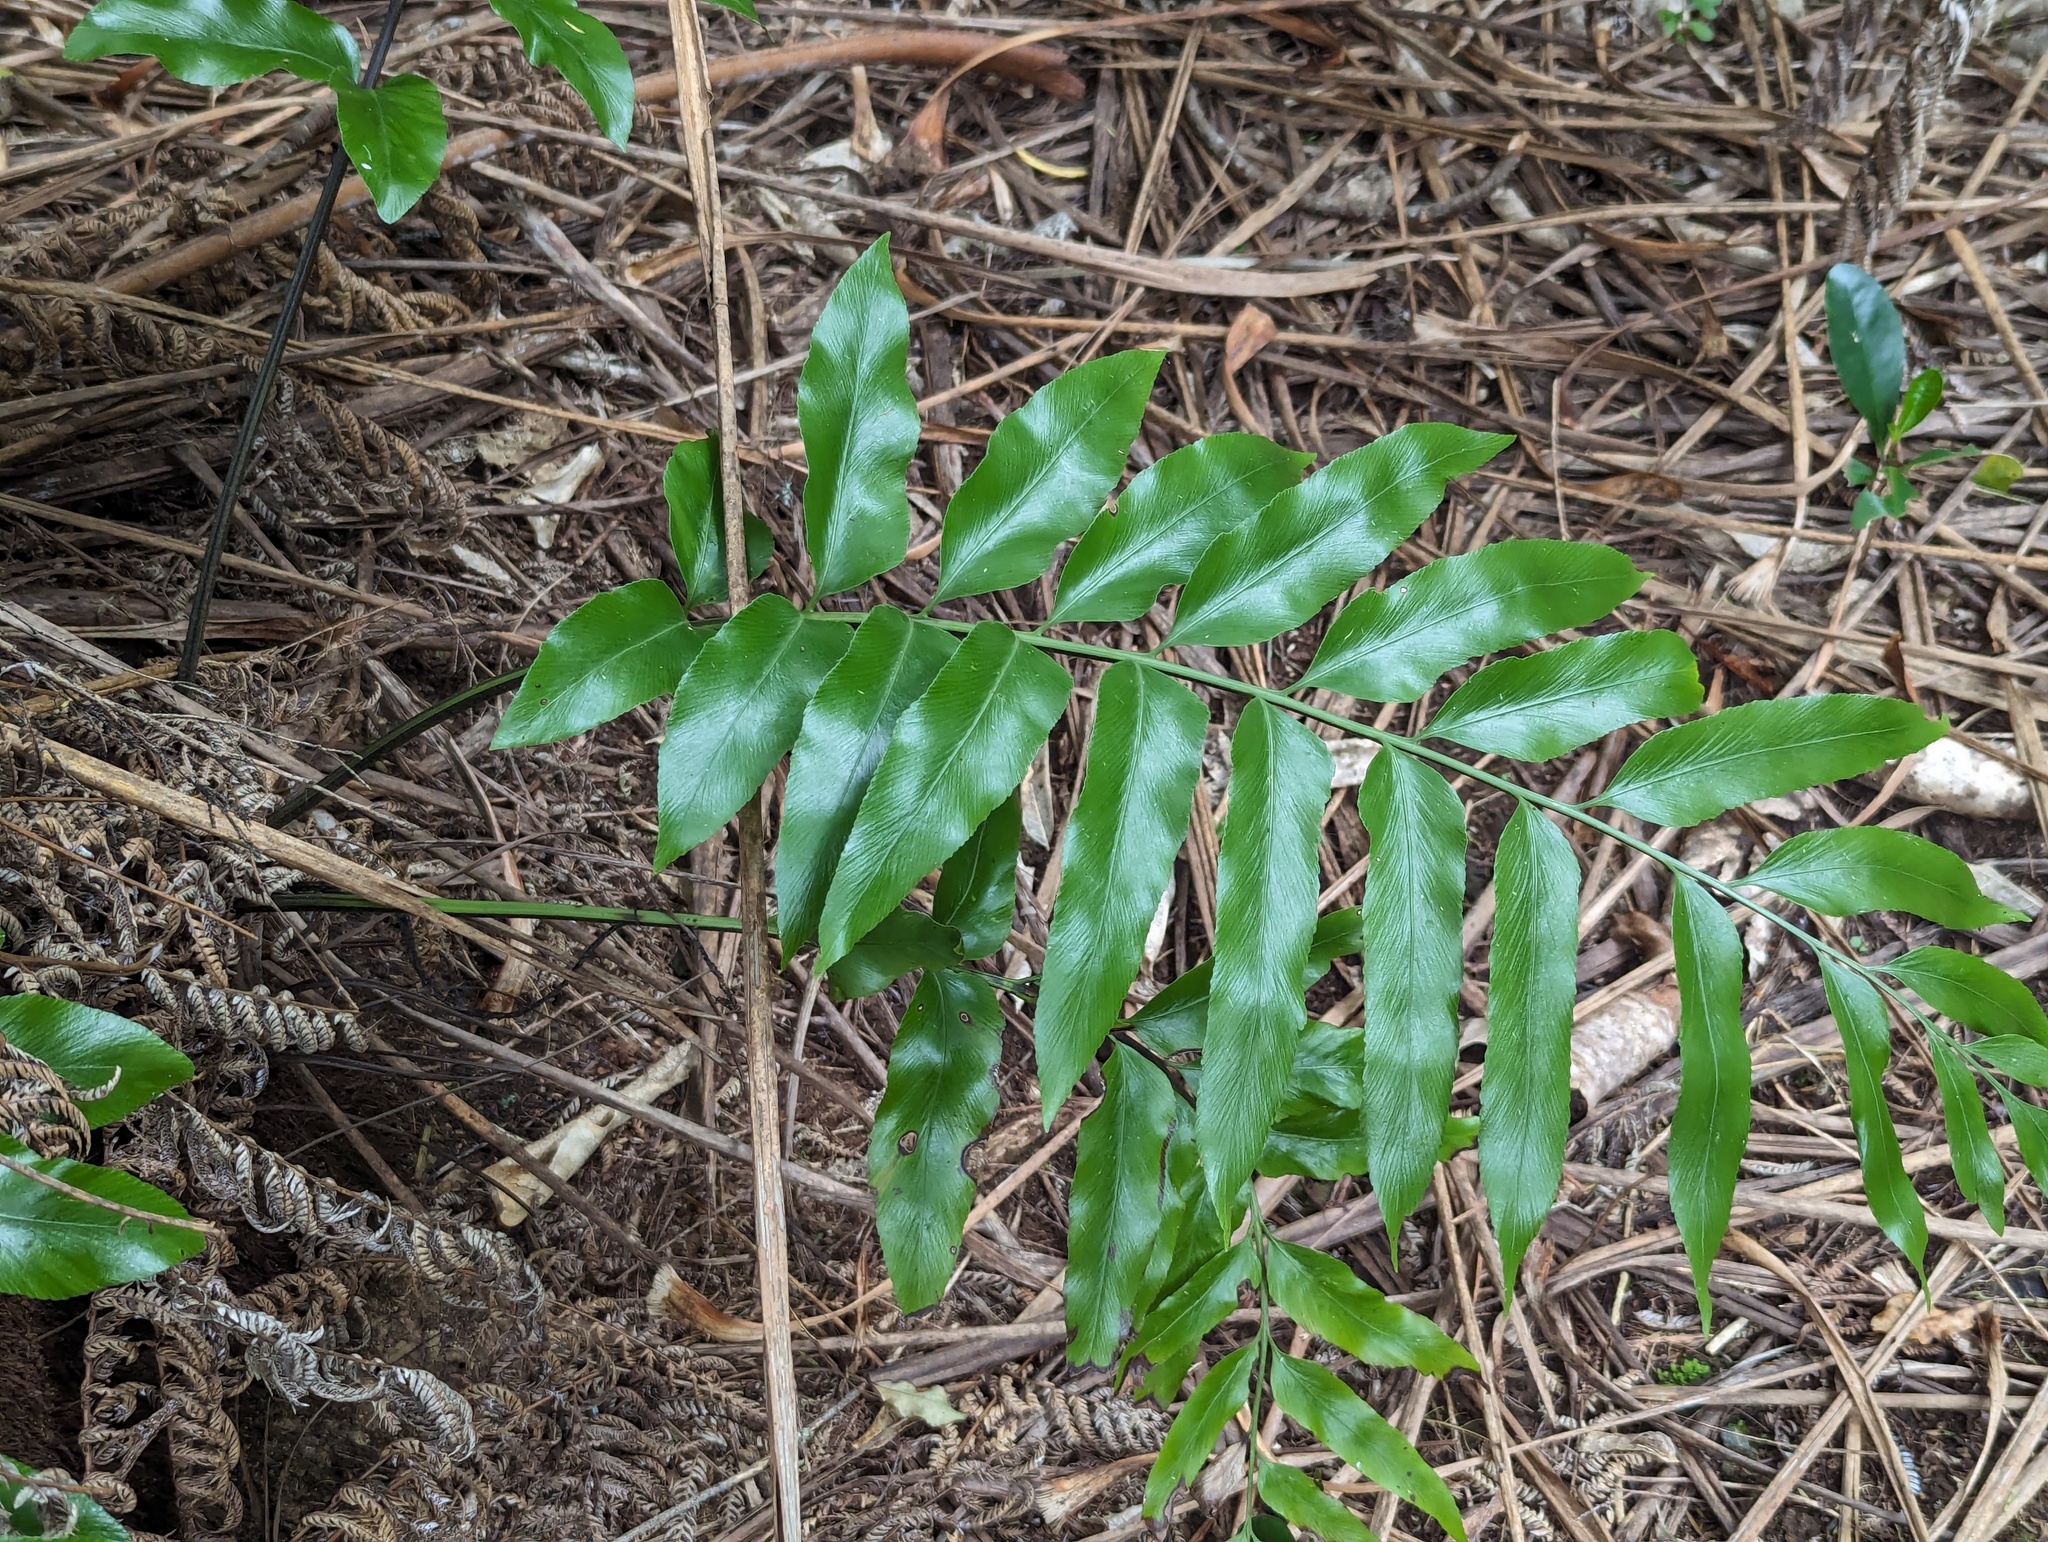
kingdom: Plantae
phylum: Tracheophyta
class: Polypodiopsida
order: Polypodiales
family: Aspleniaceae
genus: Asplenium
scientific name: Asplenium oblongifolium
